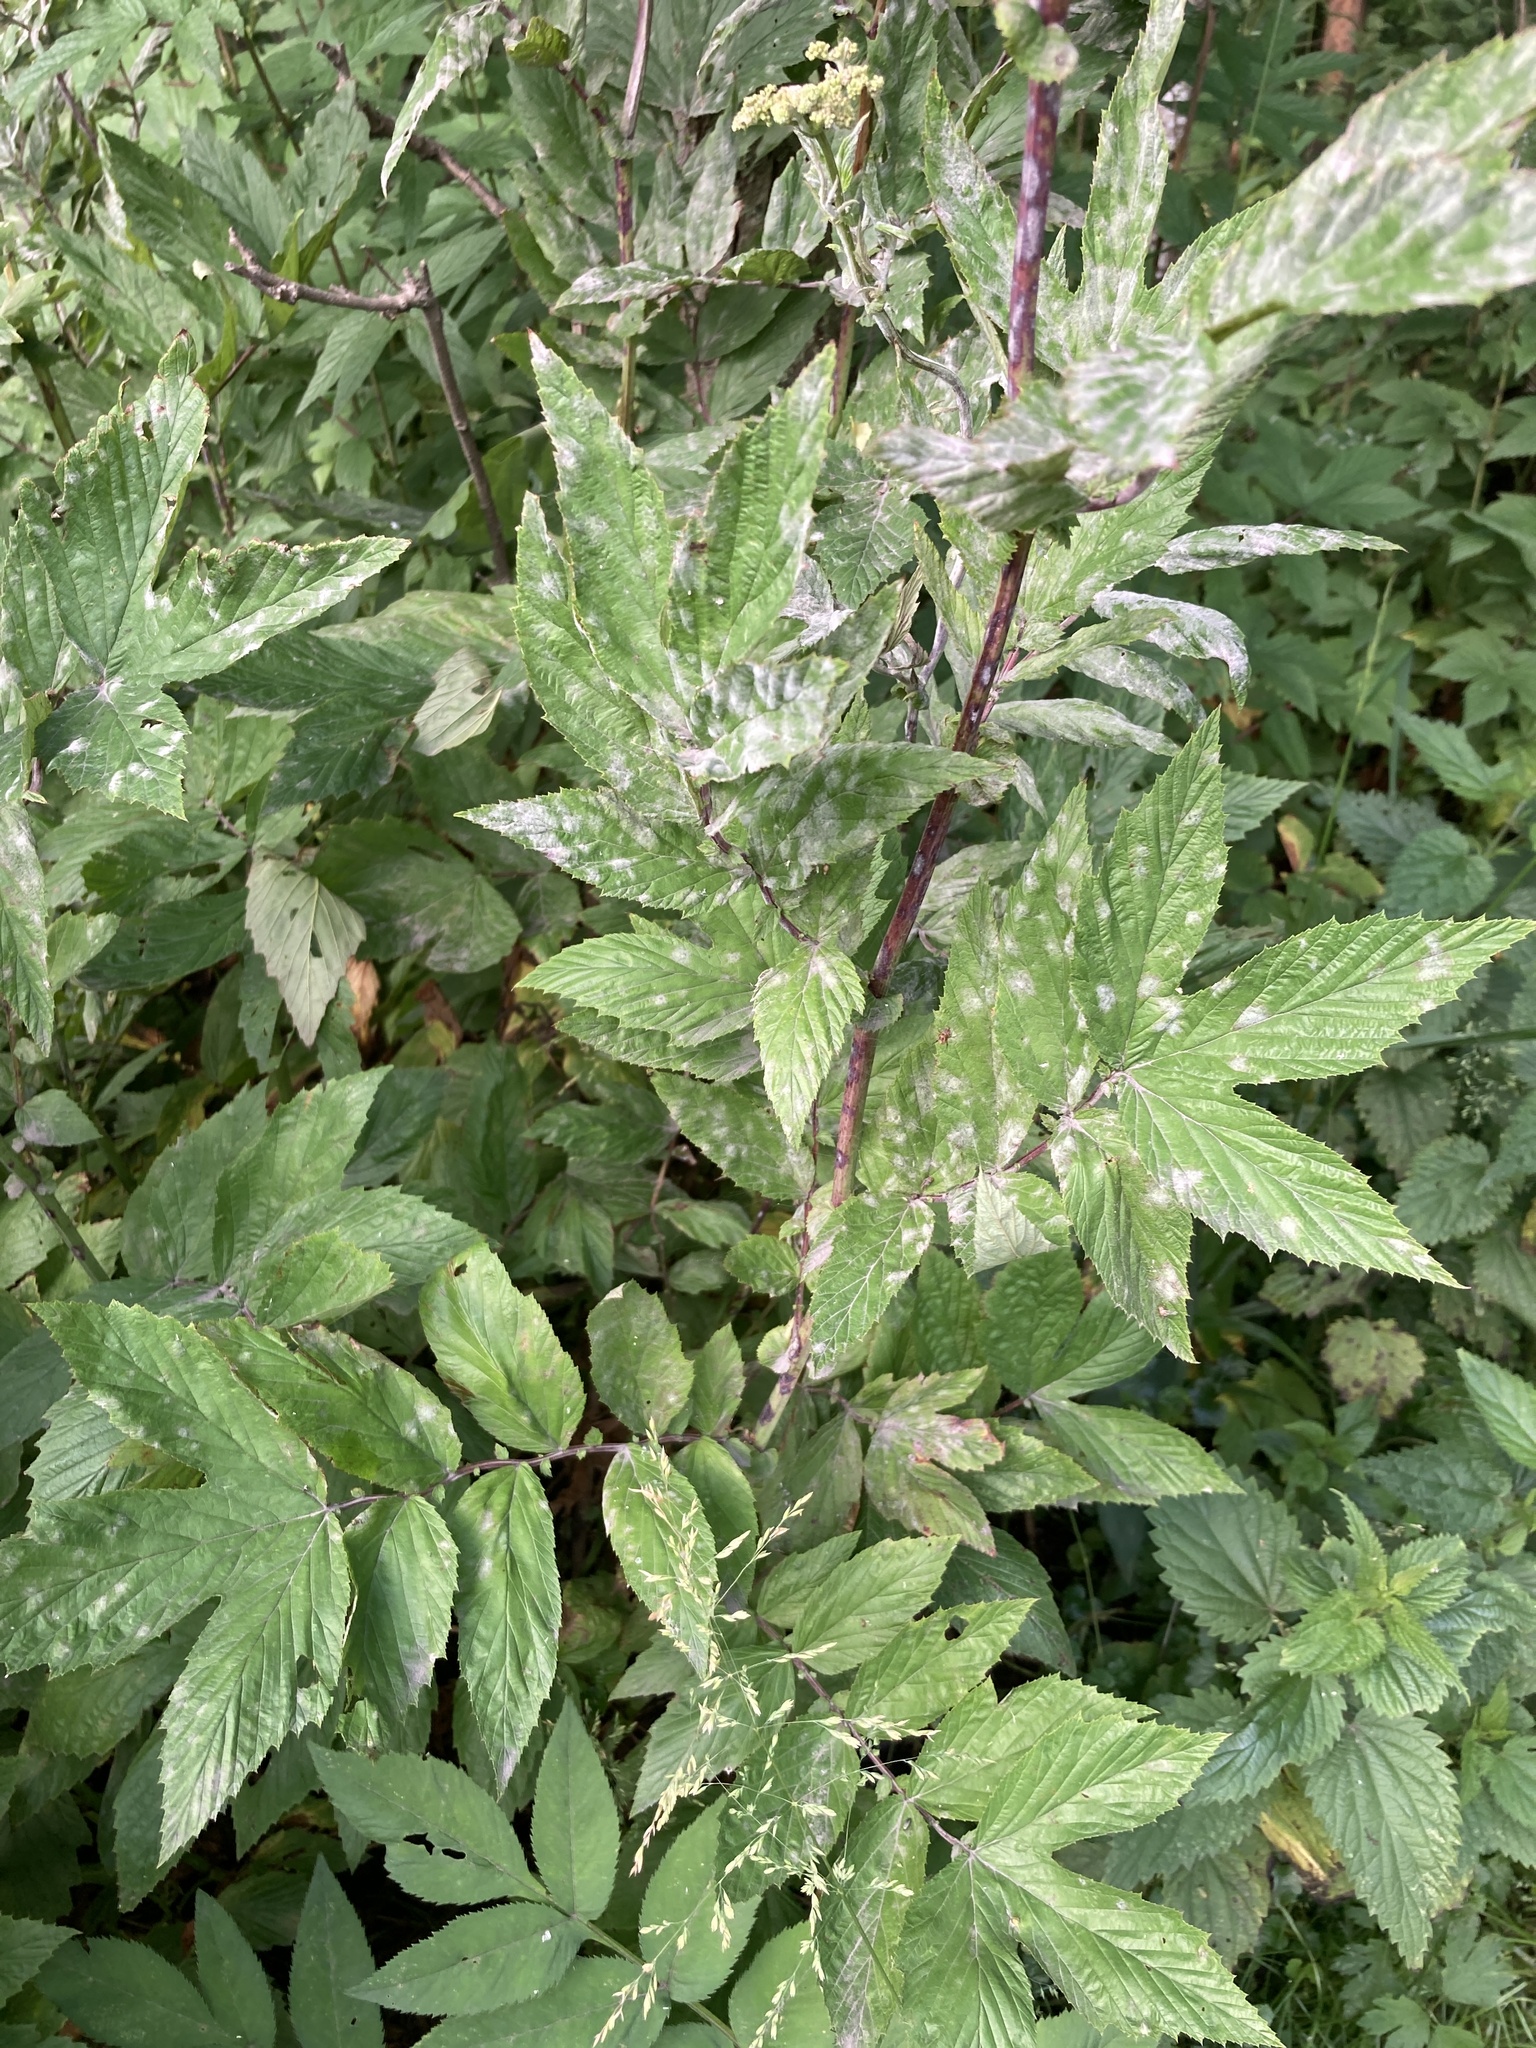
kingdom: Plantae
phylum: Tracheophyta
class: Magnoliopsida
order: Rosales
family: Rosaceae
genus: Filipendula
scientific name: Filipendula ulmaria
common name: Meadowsweet
